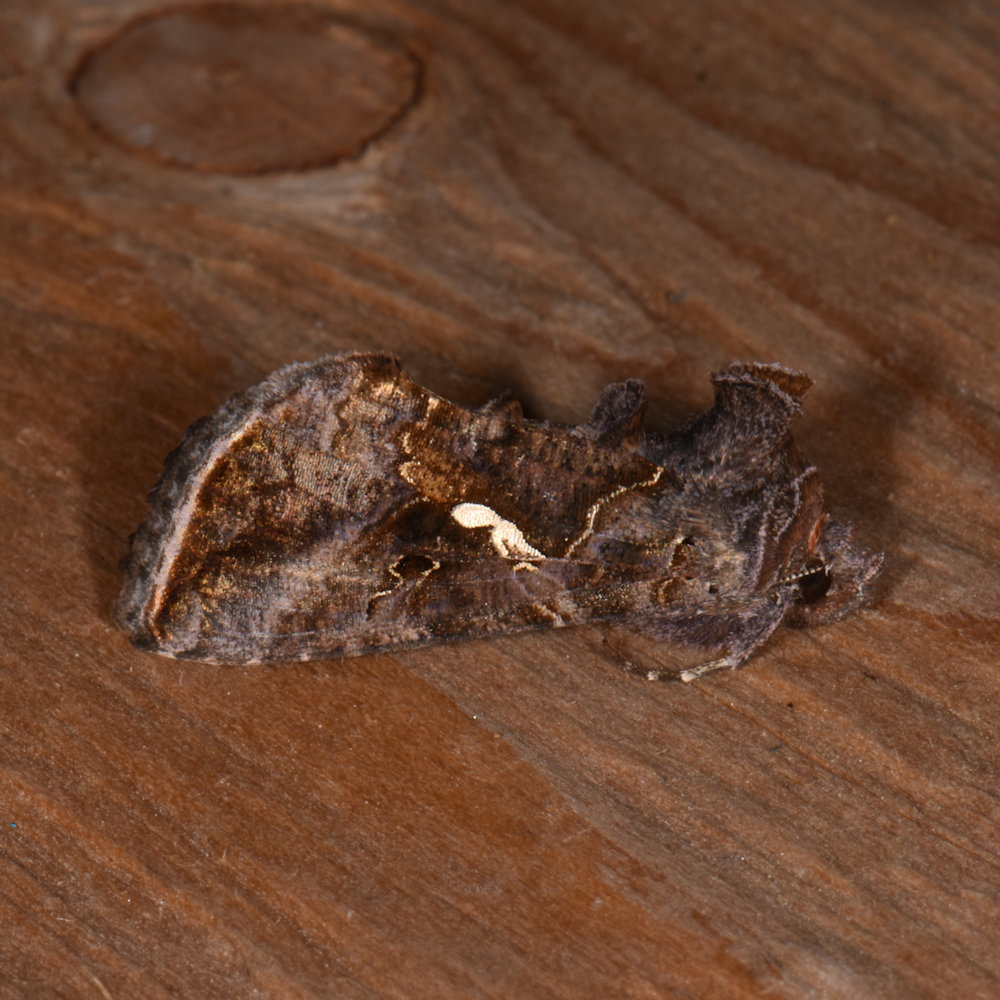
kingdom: Animalia
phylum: Arthropoda
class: Insecta
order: Lepidoptera
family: Noctuidae
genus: Autographa
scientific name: Autographa precationis
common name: Common looper moth
